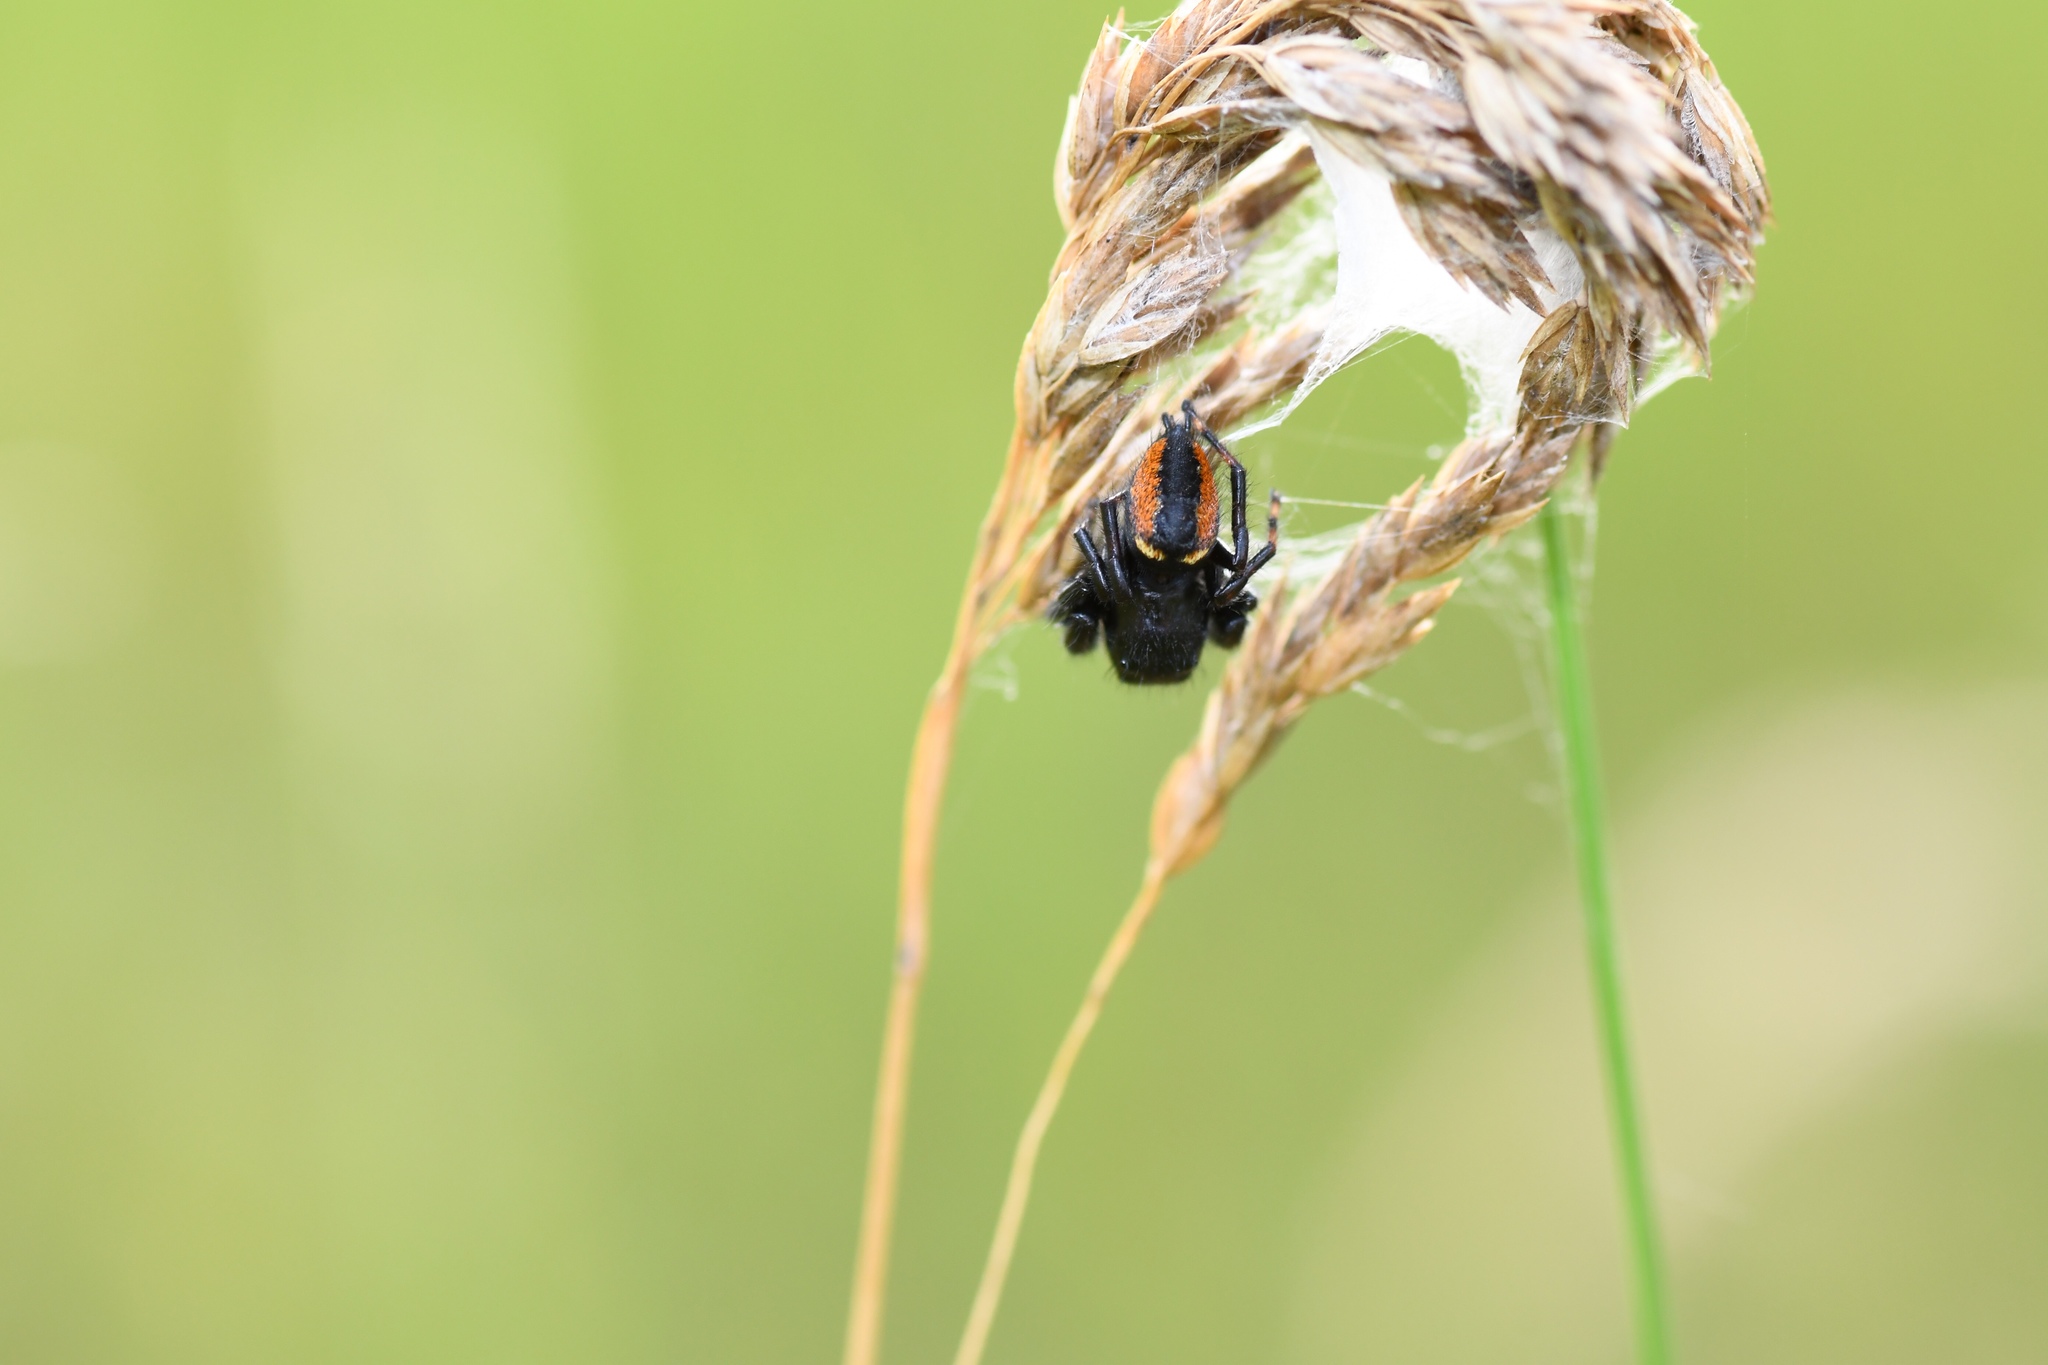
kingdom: Animalia
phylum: Arthropoda
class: Arachnida
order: Araneae
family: Salticidae
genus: Phidippus
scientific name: Phidippus clarus
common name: Brilliant jumping spider
